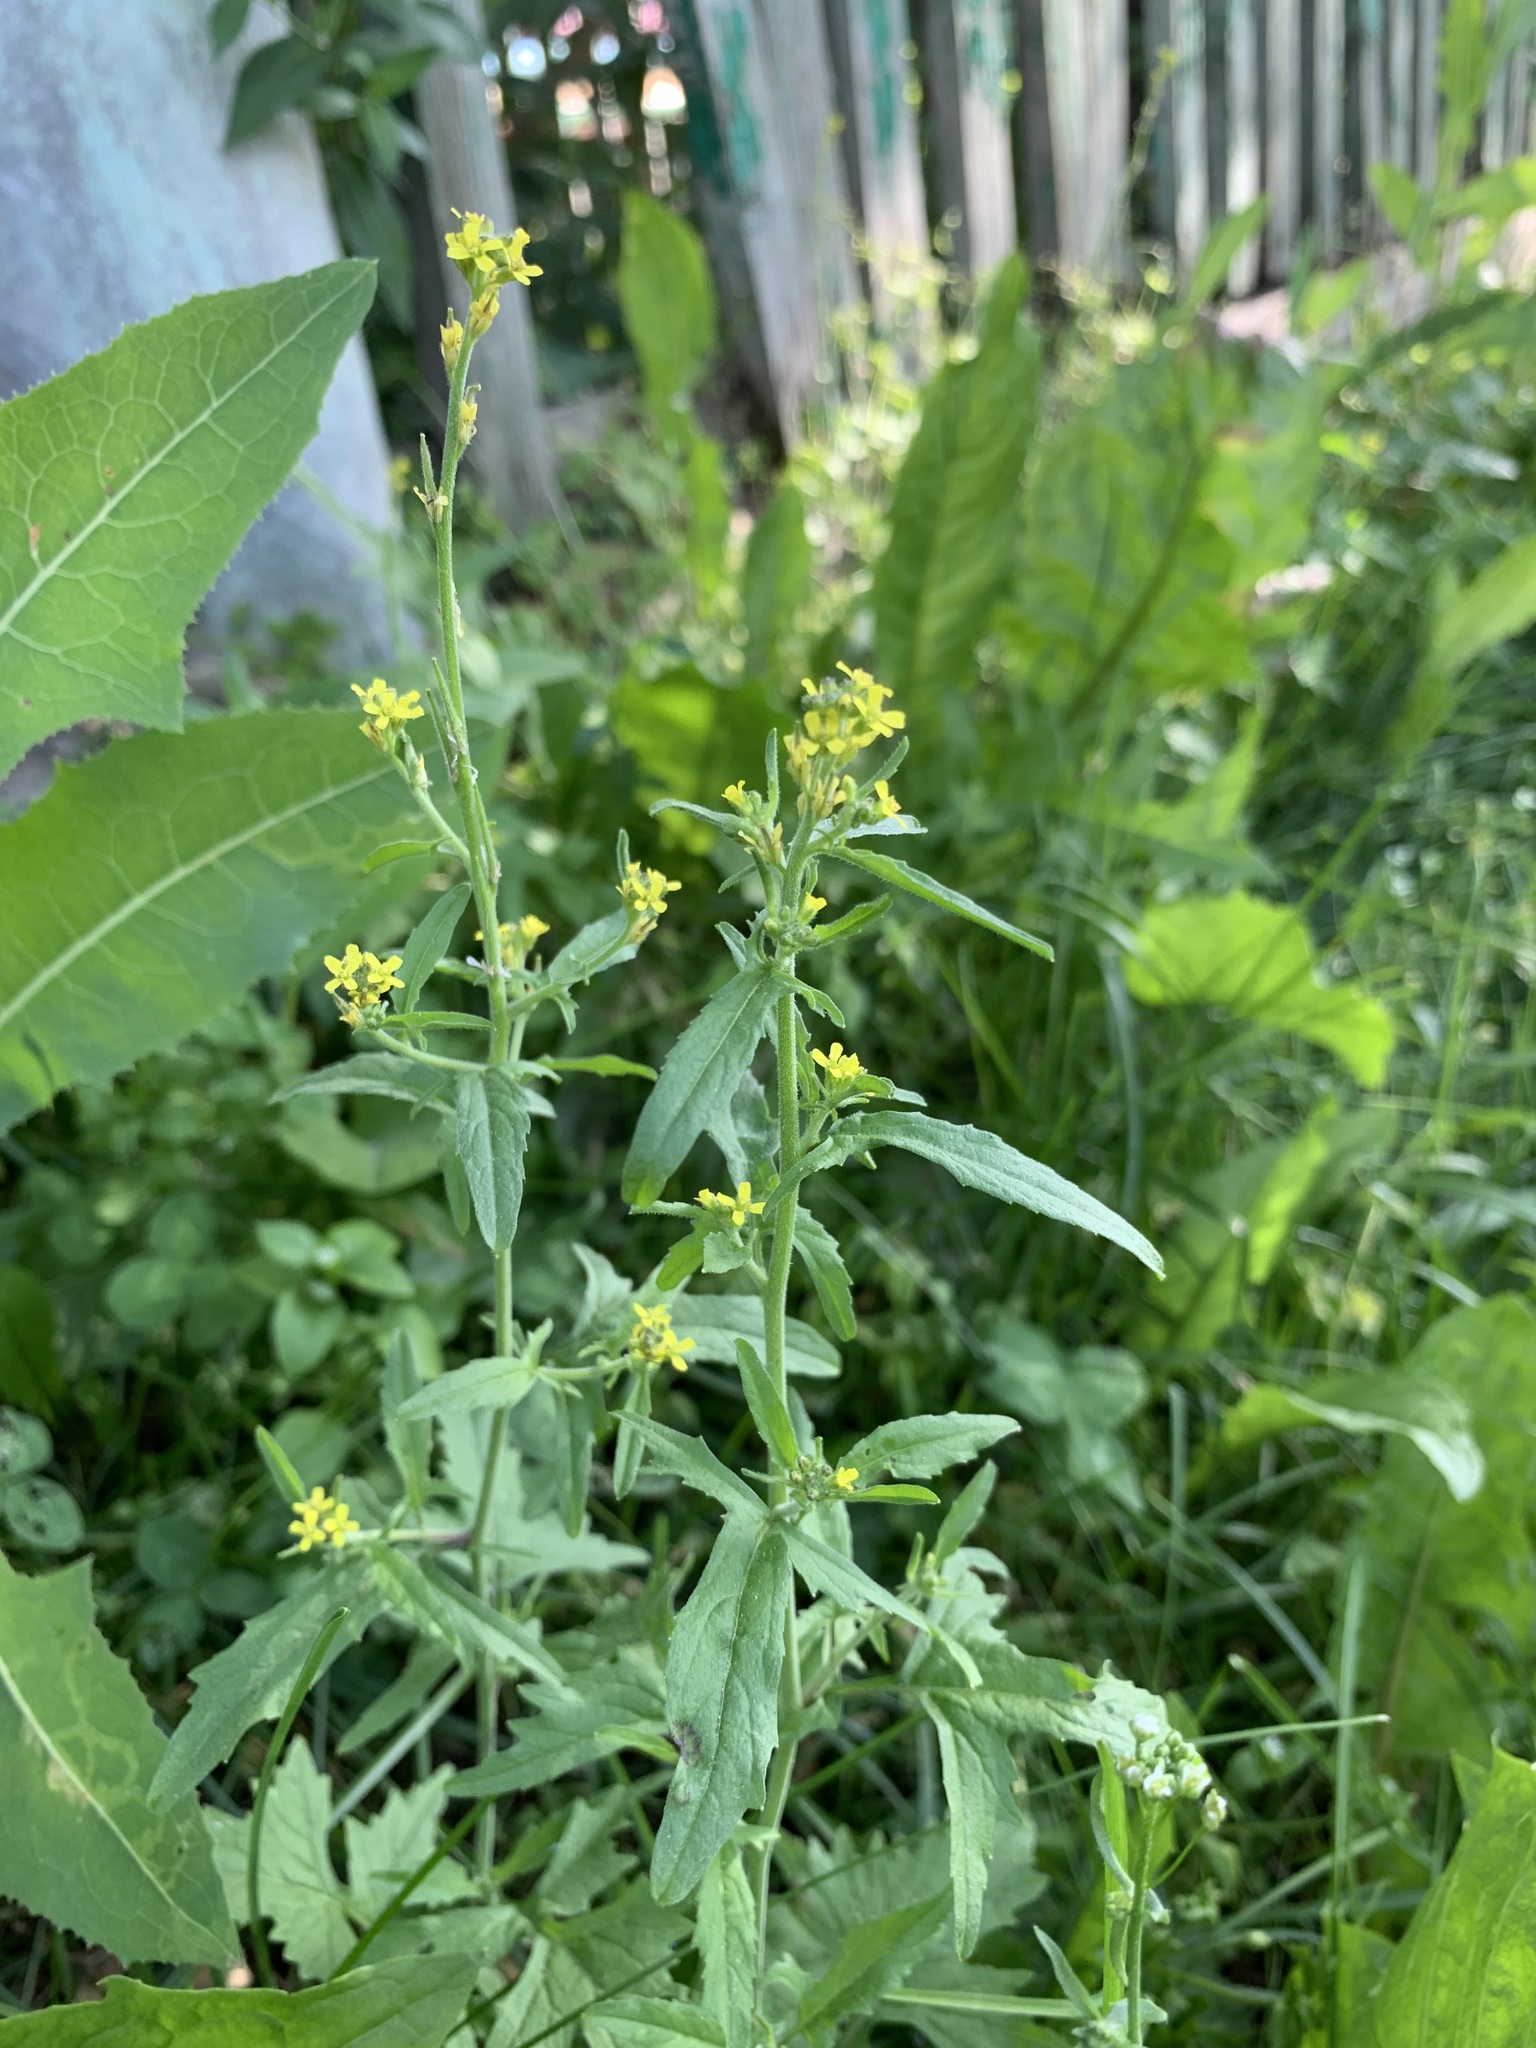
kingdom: Plantae
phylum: Tracheophyta
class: Magnoliopsida
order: Brassicales
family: Brassicaceae
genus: Sisymbrium
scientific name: Sisymbrium officinale
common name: Hedge mustard
